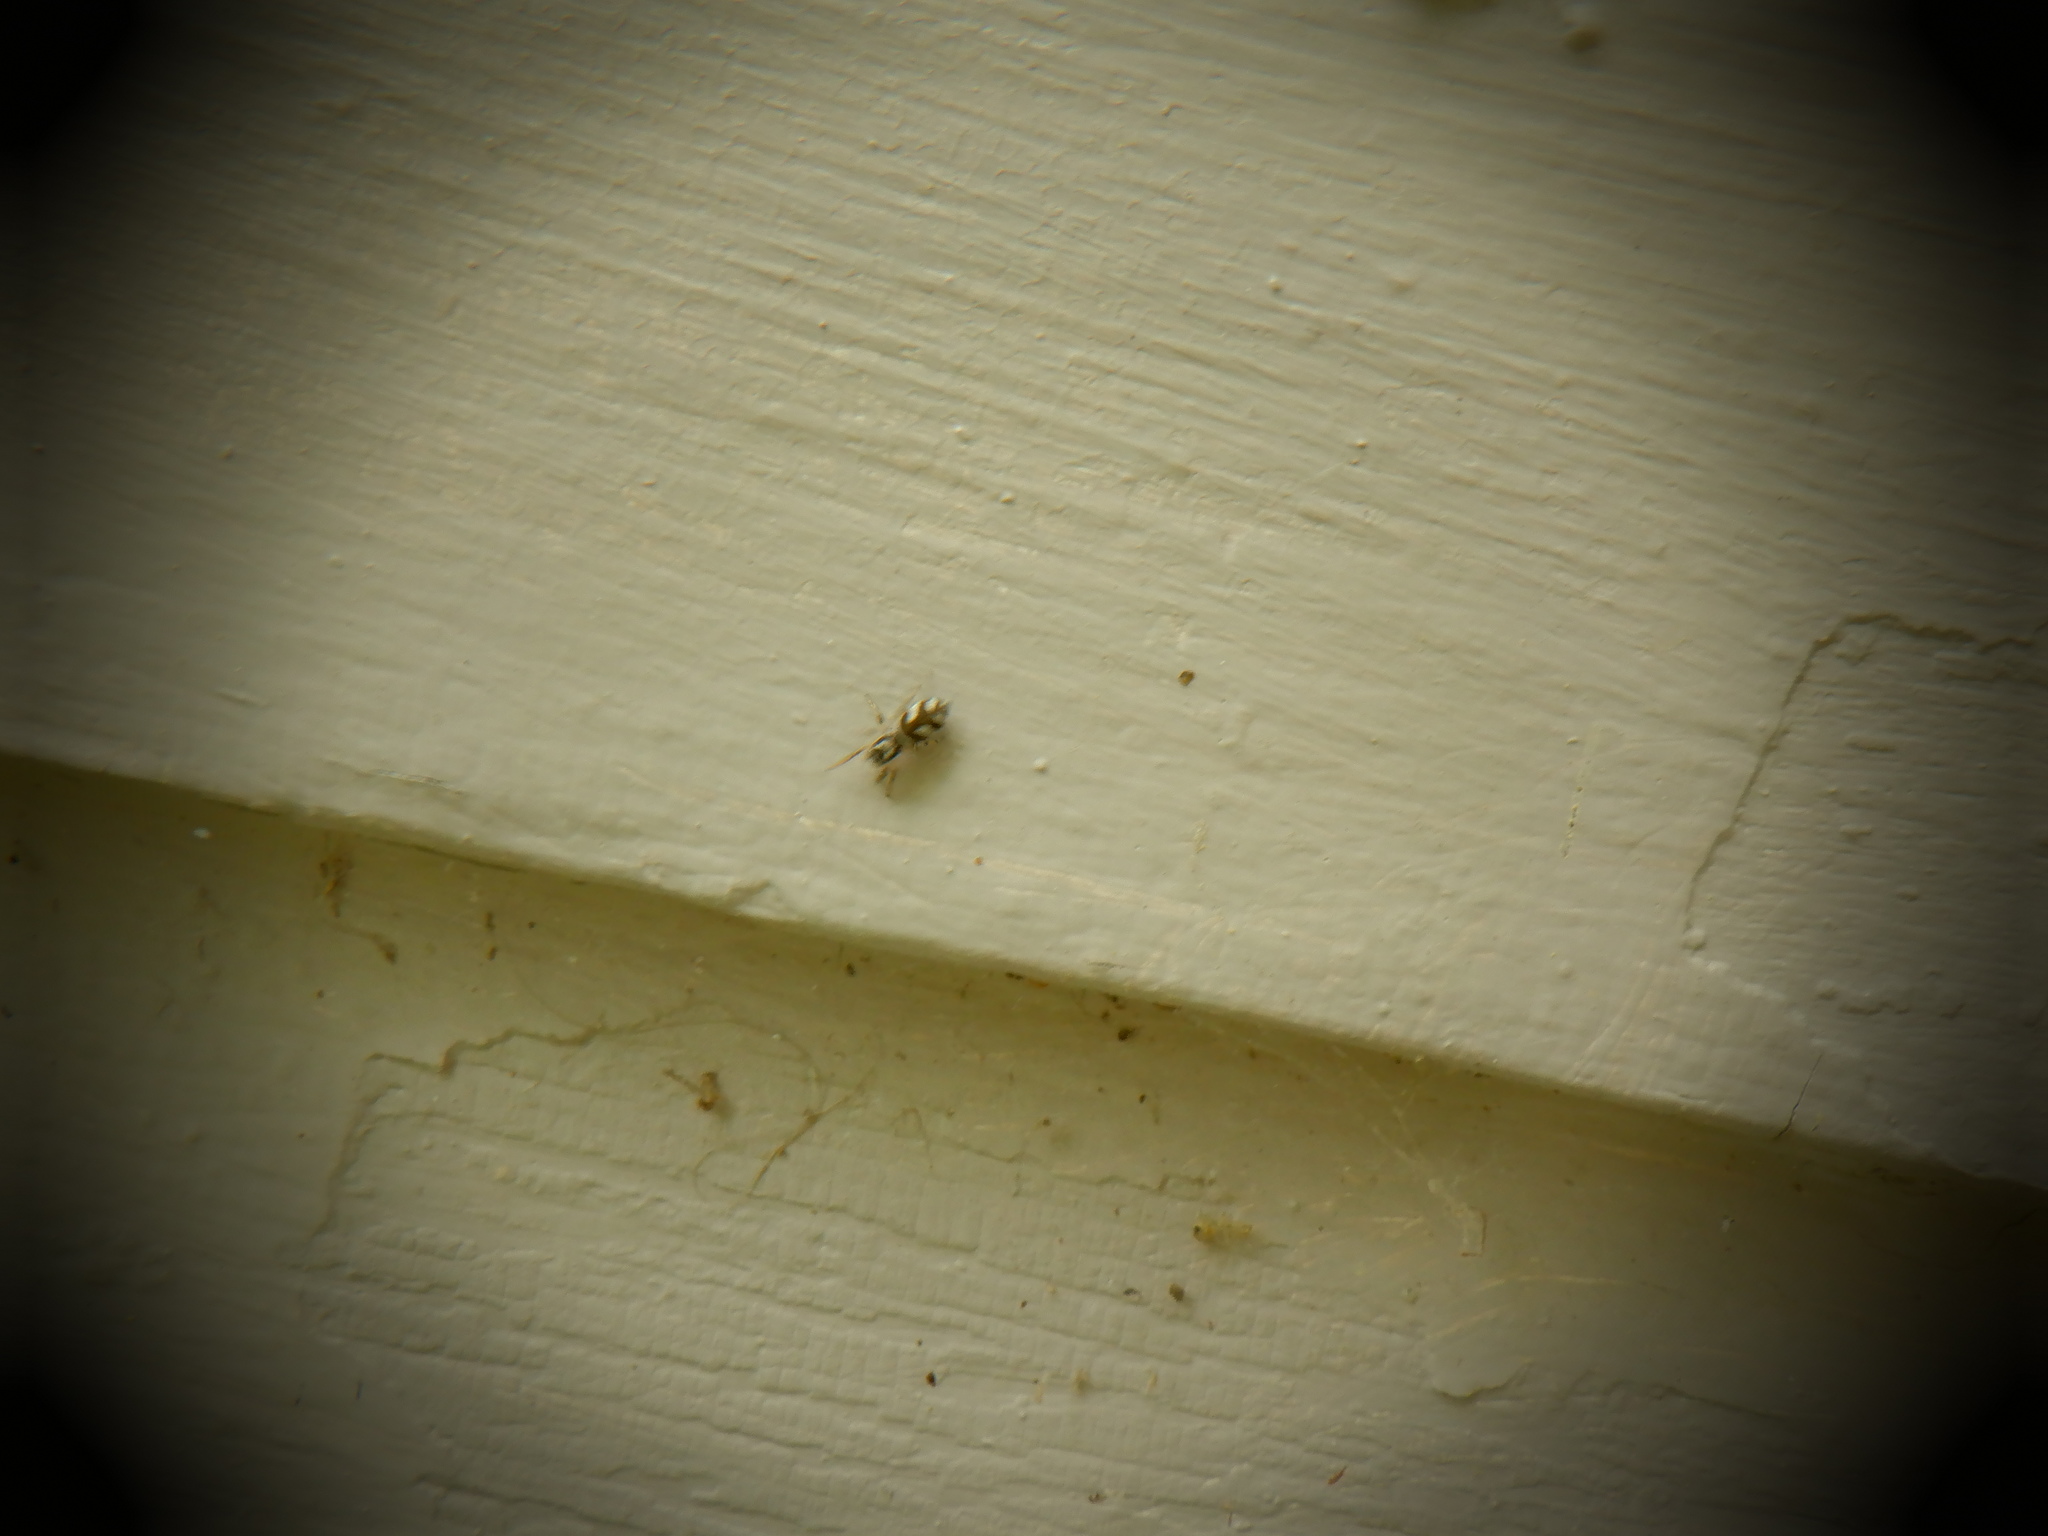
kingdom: Animalia
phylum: Arthropoda
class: Arachnida
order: Araneae
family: Salticidae
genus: Salticus
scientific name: Salticus scenicus
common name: Zebra jumper
